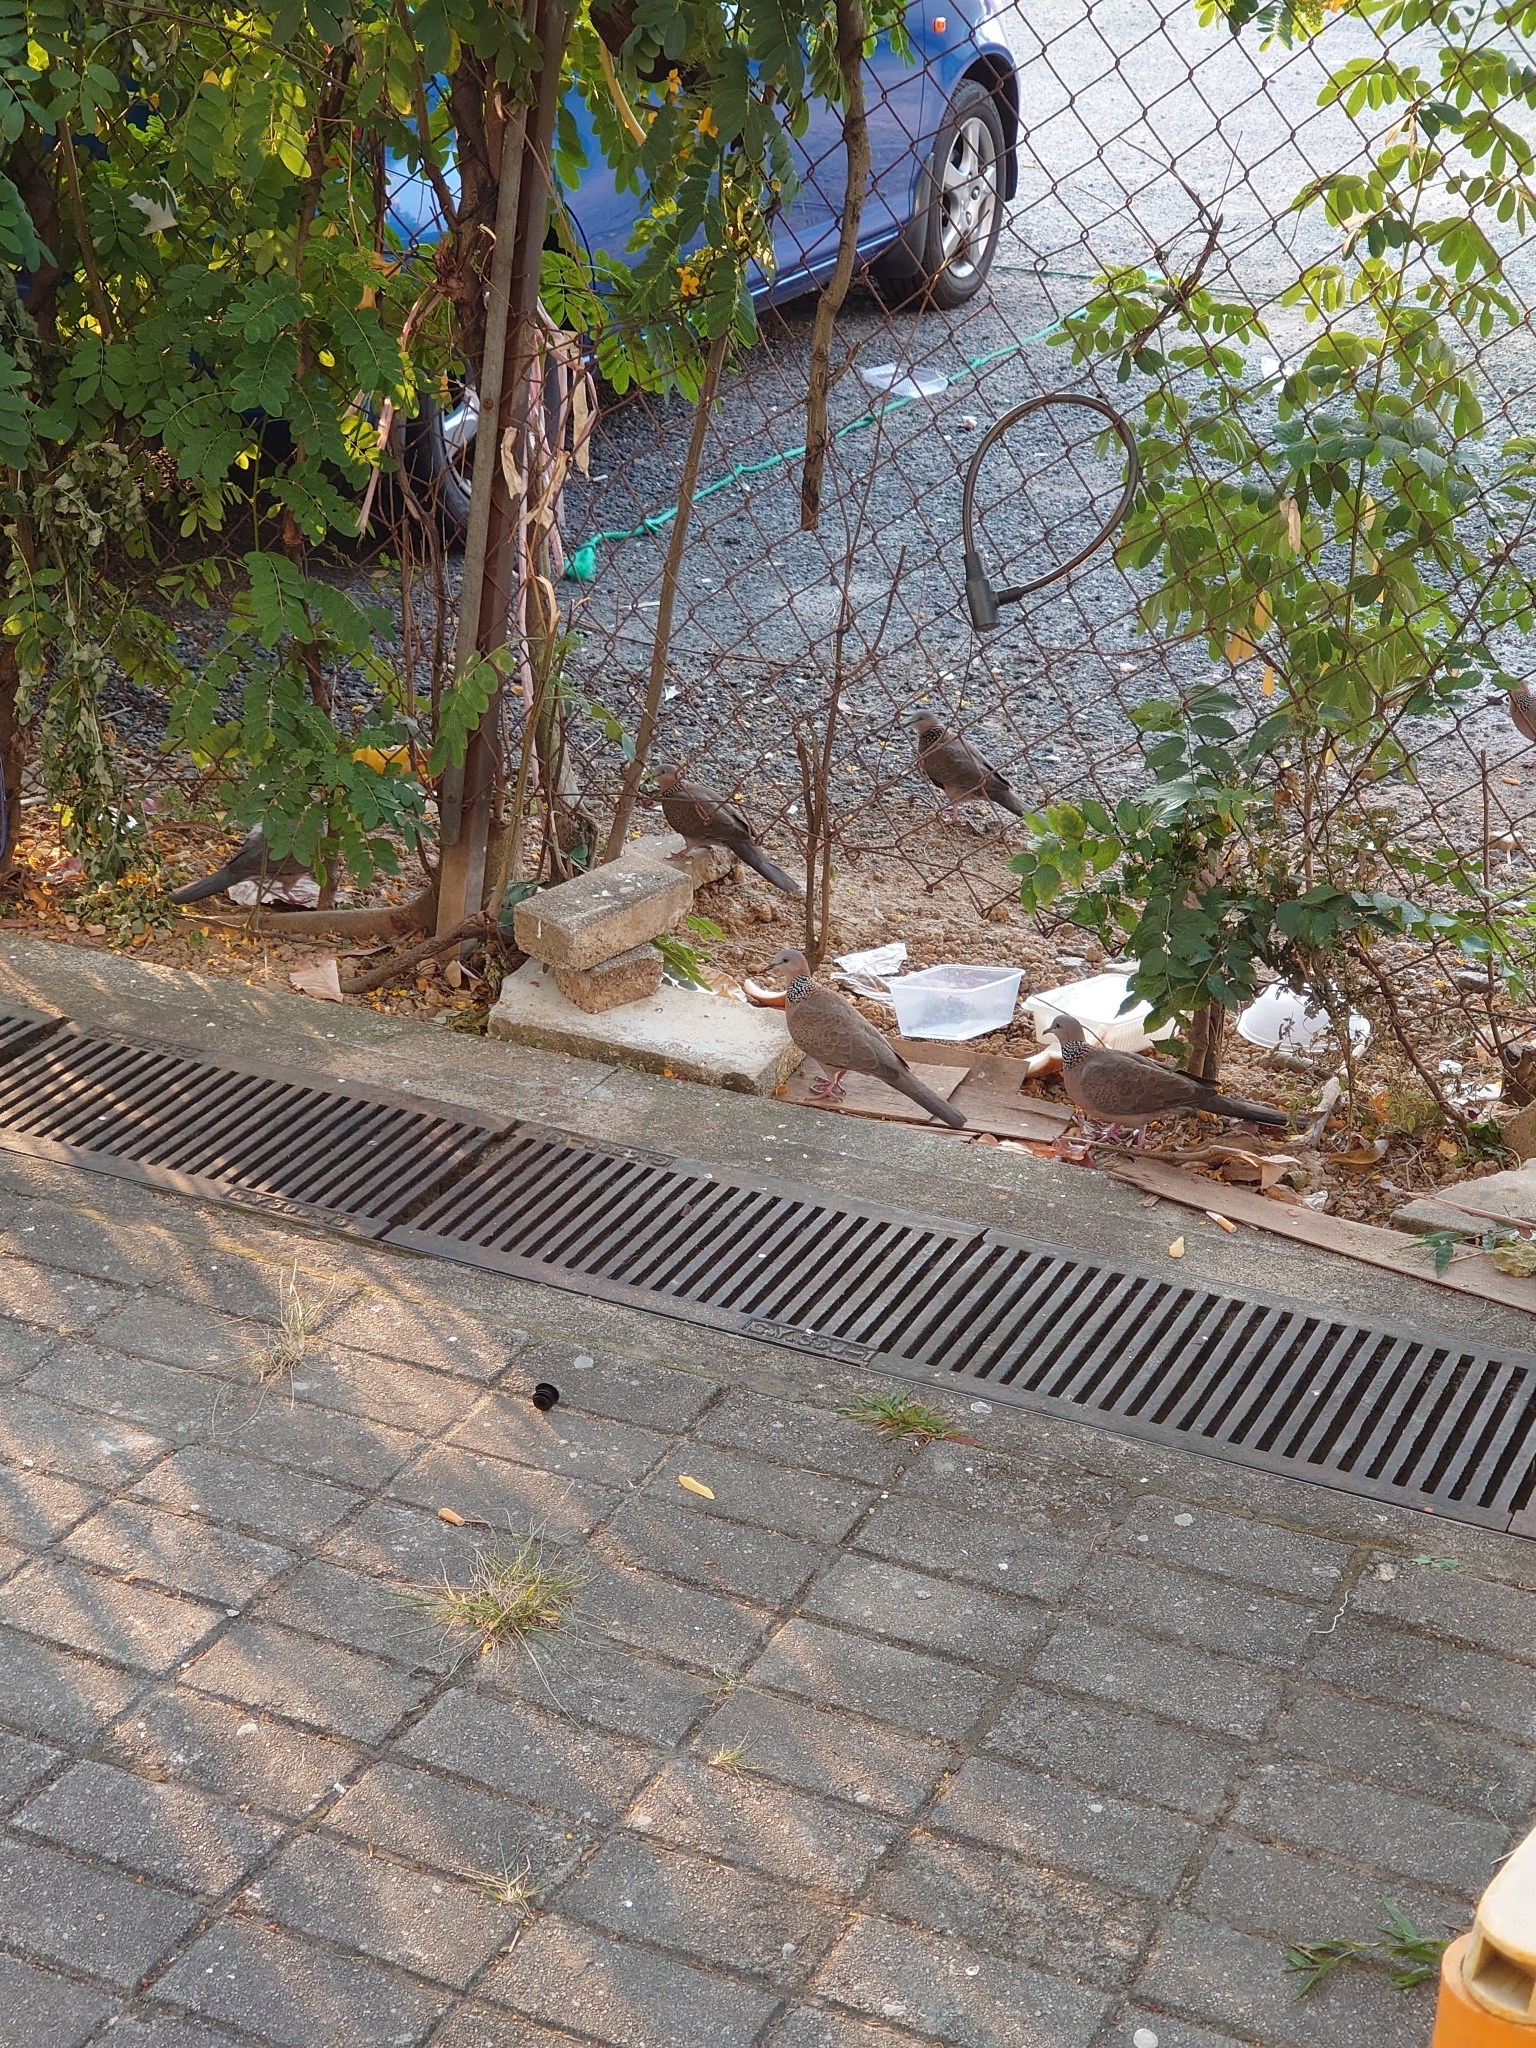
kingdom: Animalia
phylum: Chordata
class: Aves
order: Columbiformes
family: Columbidae
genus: Spilopelia
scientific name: Spilopelia chinensis
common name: Spotted dove
